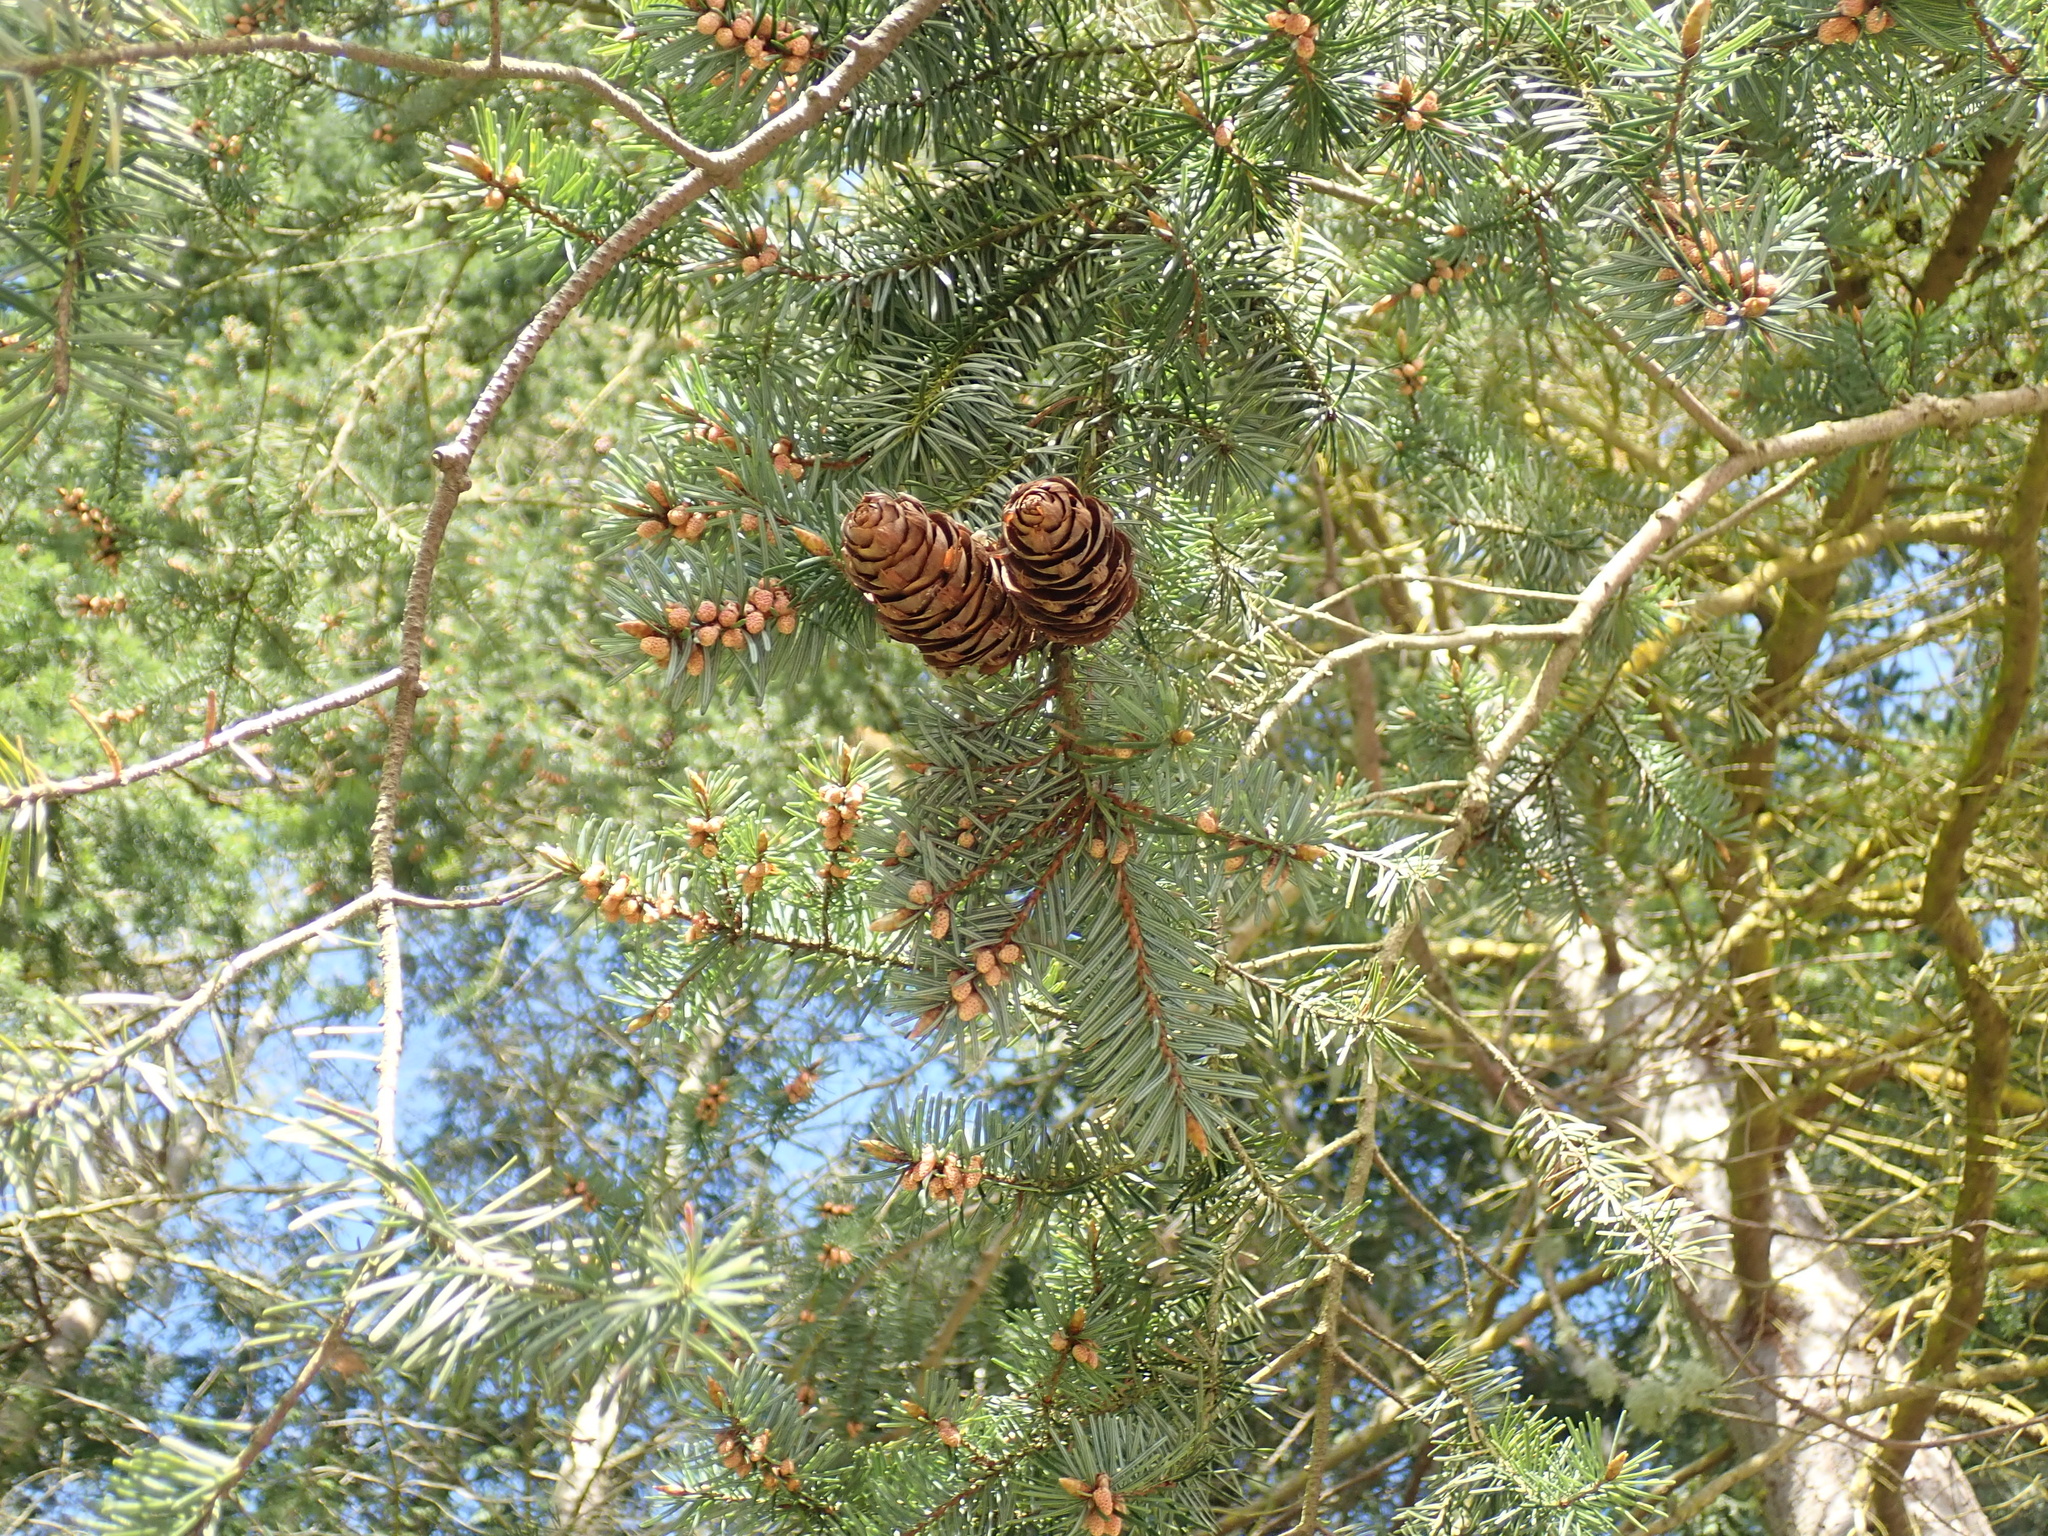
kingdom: Plantae
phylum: Tracheophyta
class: Pinopsida
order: Pinales
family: Pinaceae
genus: Pseudotsuga
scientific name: Pseudotsuga menziesii
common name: Douglas fir
